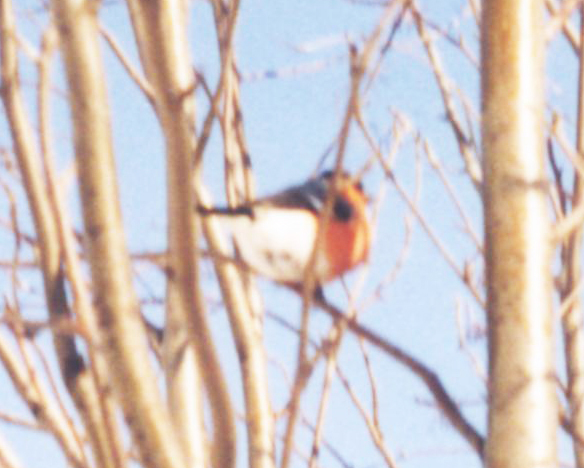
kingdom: Animalia
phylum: Chordata
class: Aves
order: Passeriformes
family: Fringillidae
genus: Pyrrhula
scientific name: Pyrrhula pyrrhula
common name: Eurasian bullfinch
